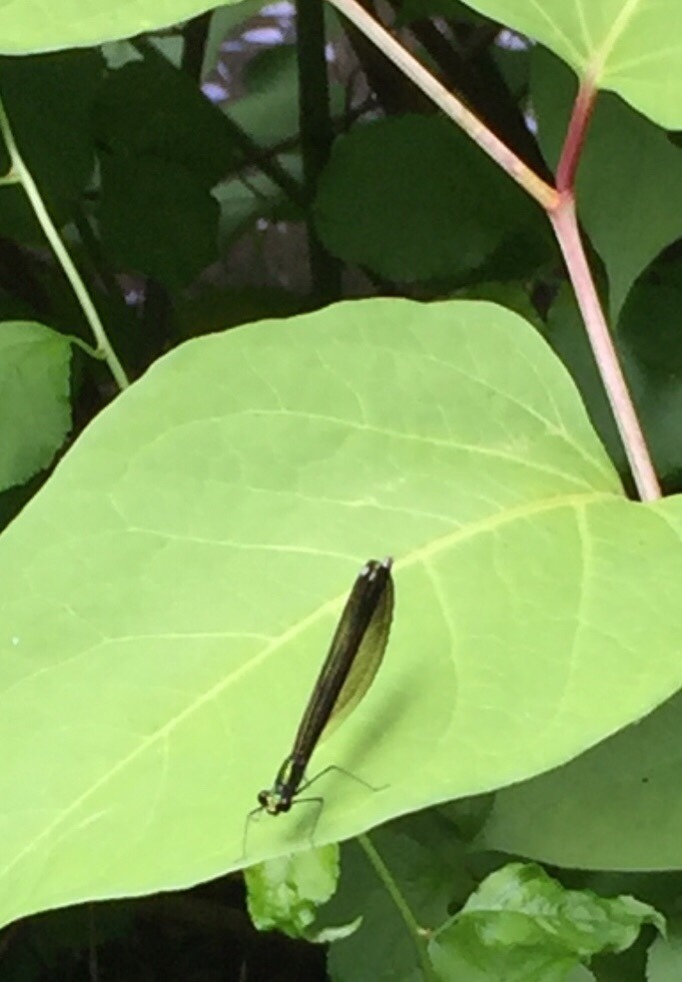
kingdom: Animalia
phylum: Arthropoda
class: Insecta
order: Odonata
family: Calopterygidae
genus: Calopteryx
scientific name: Calopteryx maculata
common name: Ebony jewelwing
